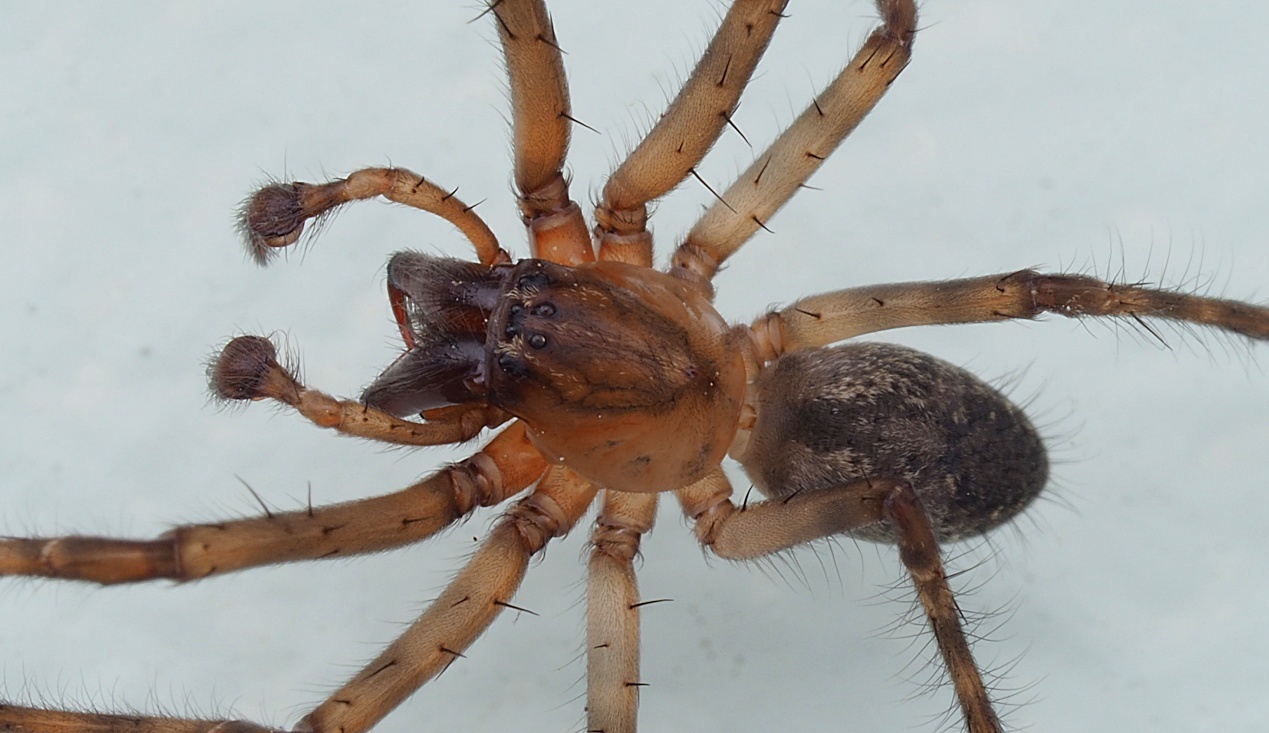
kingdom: Animalia
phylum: Arthropoda
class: Arachnida
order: Araneae
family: Desidae
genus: Nuisiana
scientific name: Nuisiana arboris
